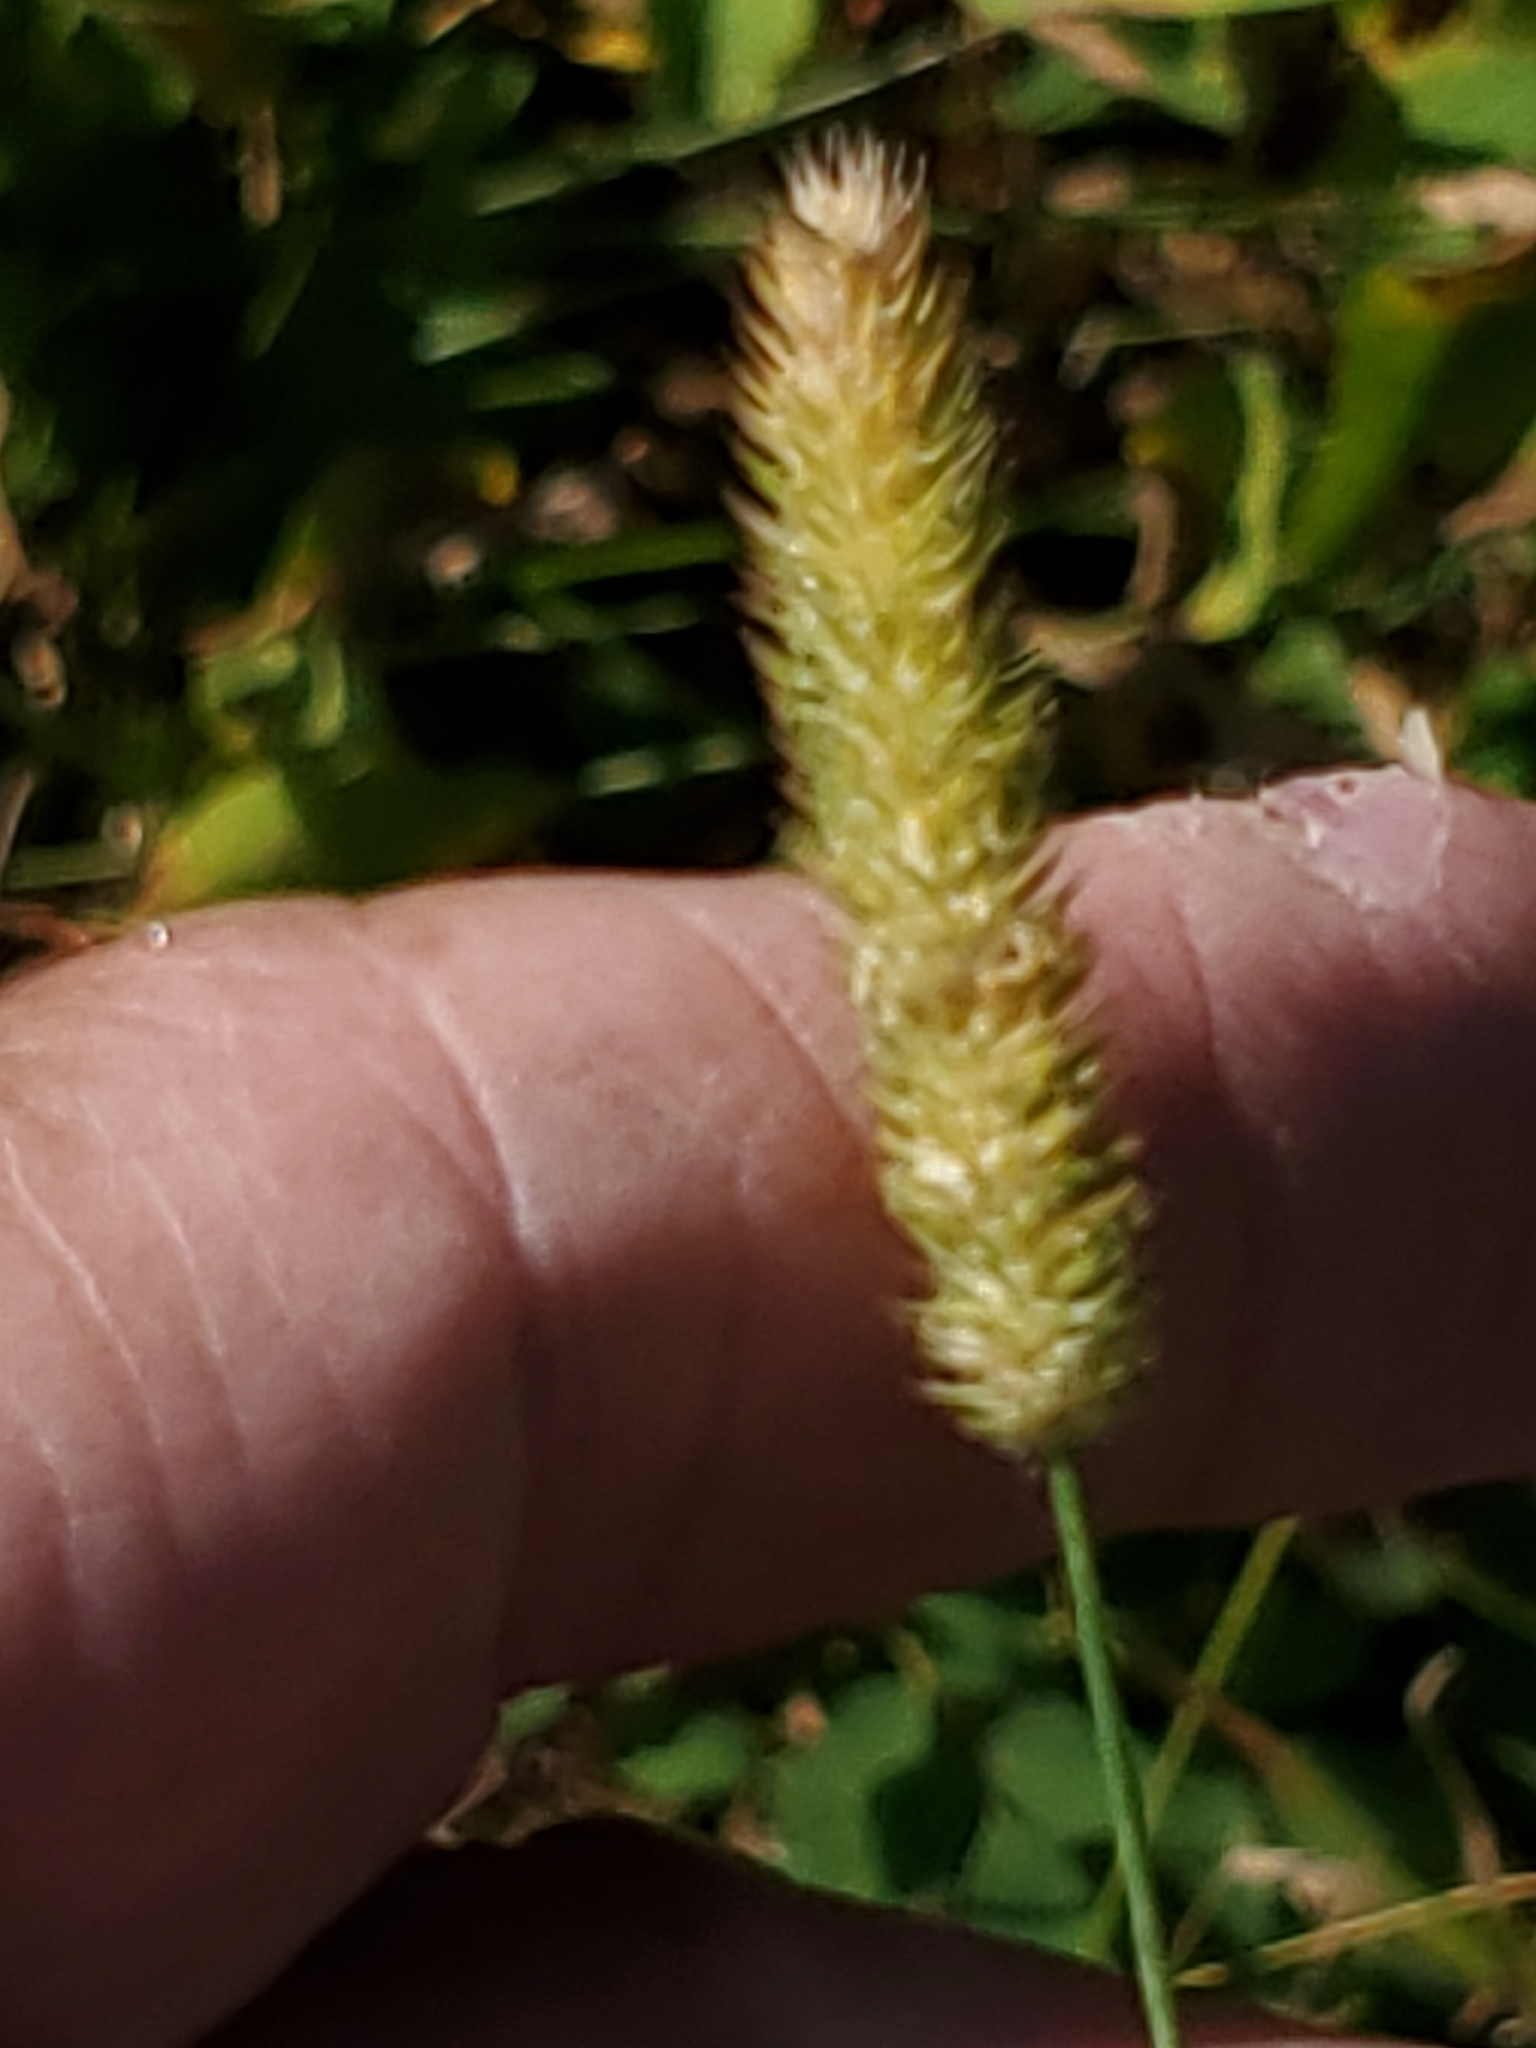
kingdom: Plantae
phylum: Tracheophyta
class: Liliopsida
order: Poales
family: Poaceae
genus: Phleum
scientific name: Phleum pratense
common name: Timothy grass
